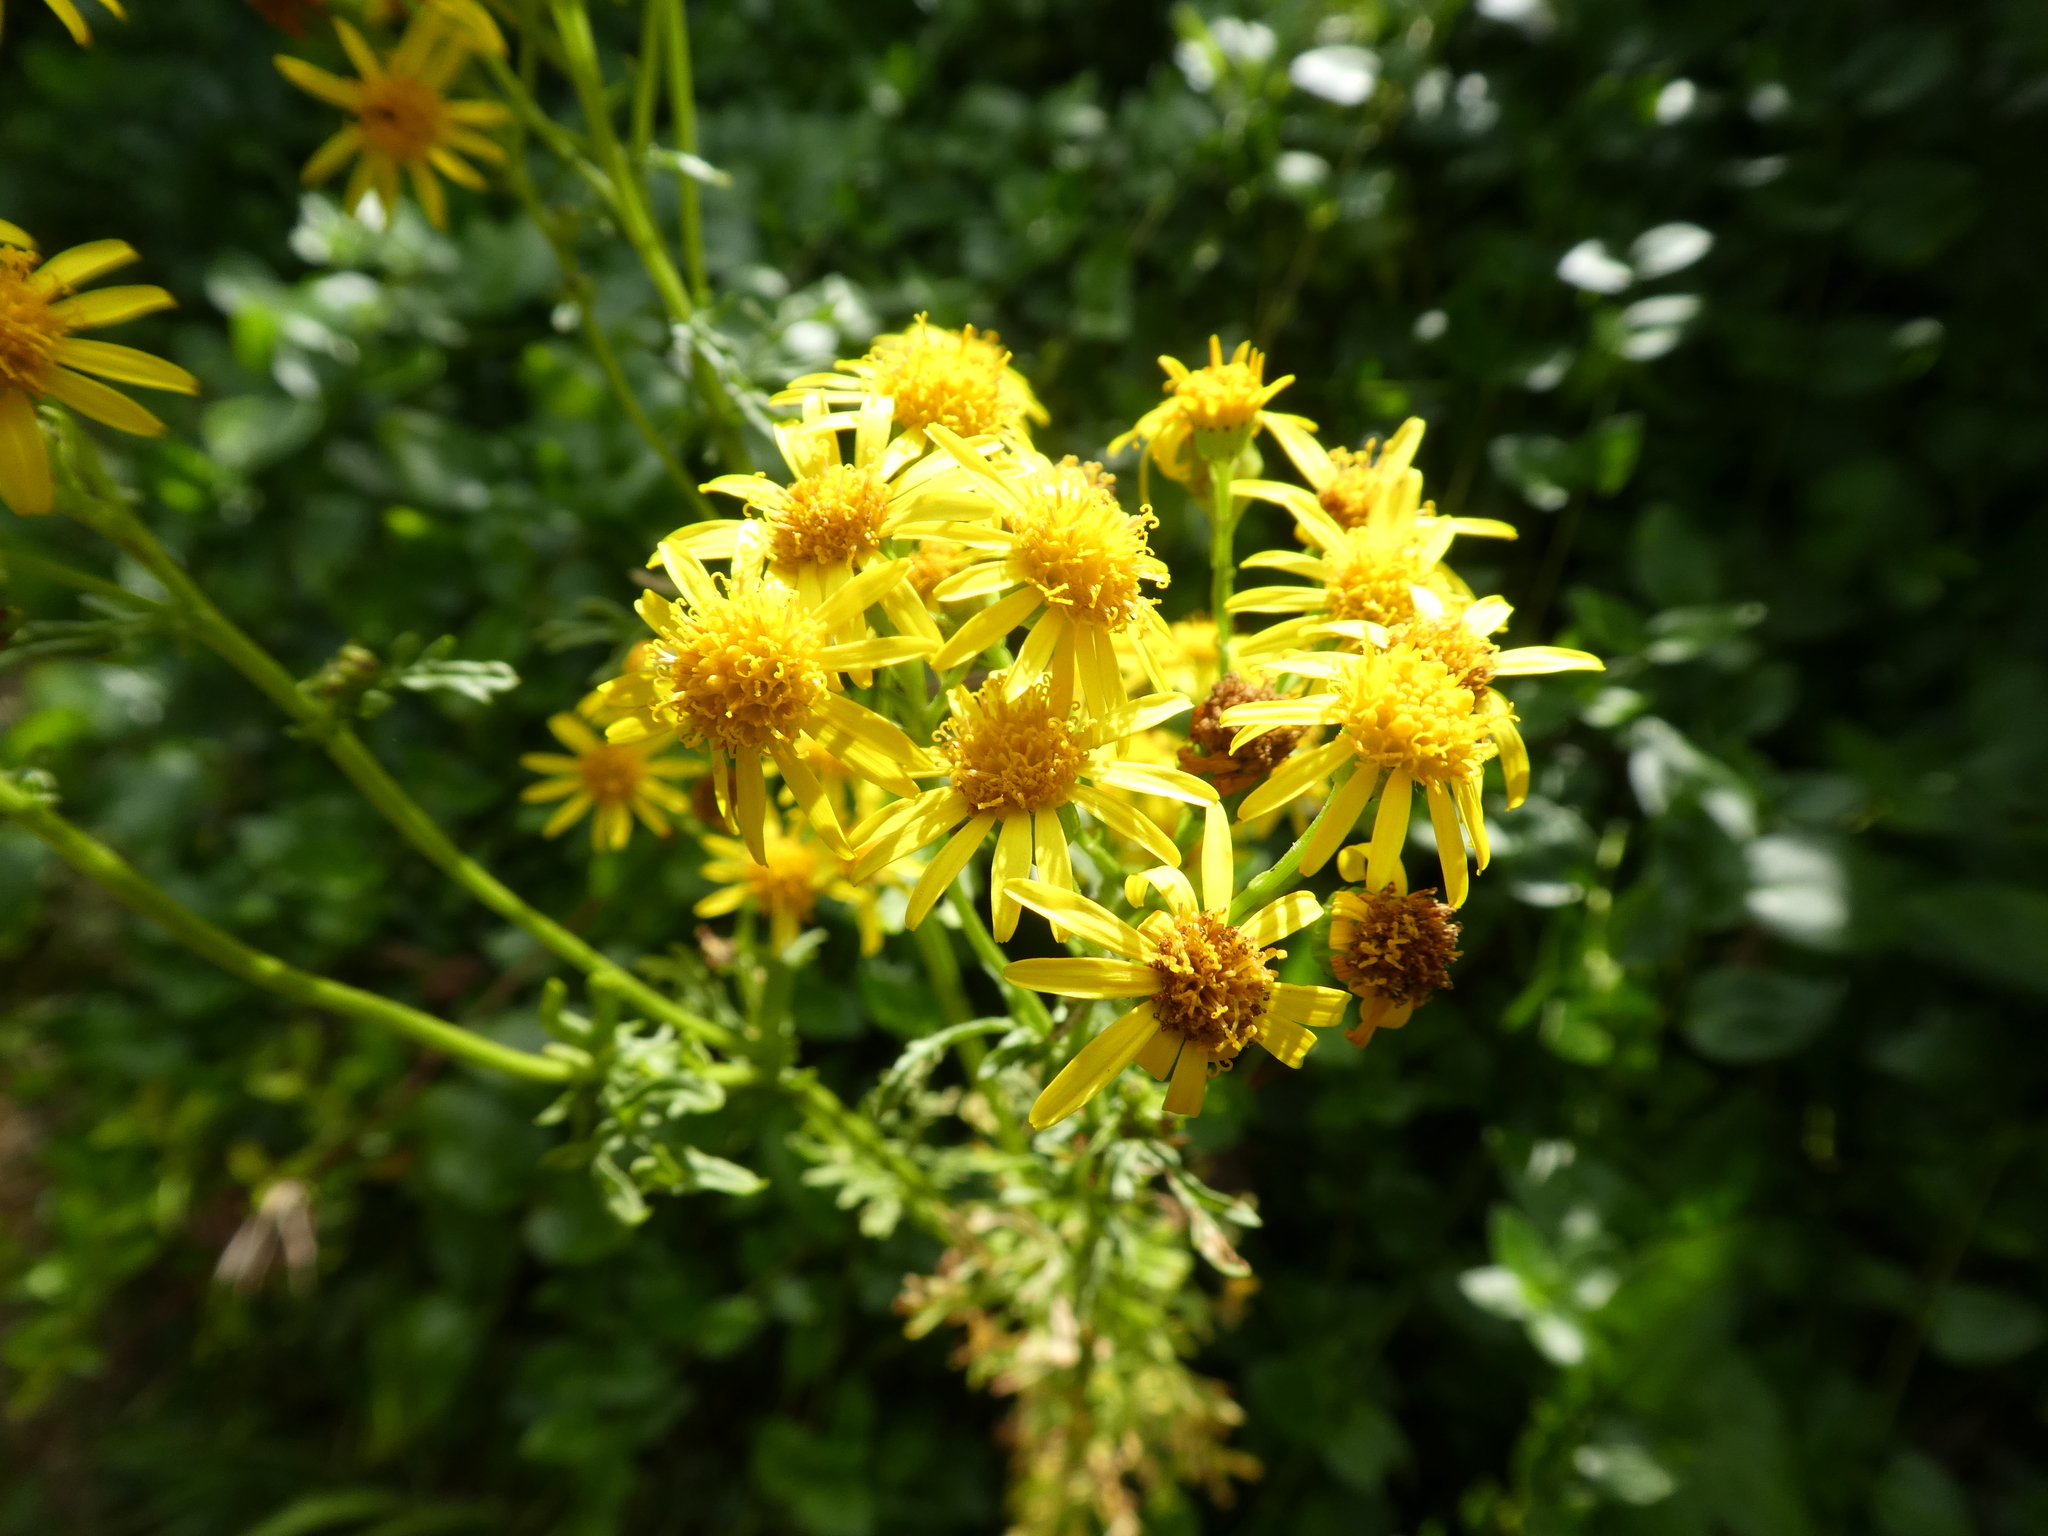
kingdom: Plantae
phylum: Tracheophyta
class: Magnoliopsida
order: Asterales
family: Asteraceae
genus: Jacobaea
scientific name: Jacobaea vulgaris
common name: Stinking willie
